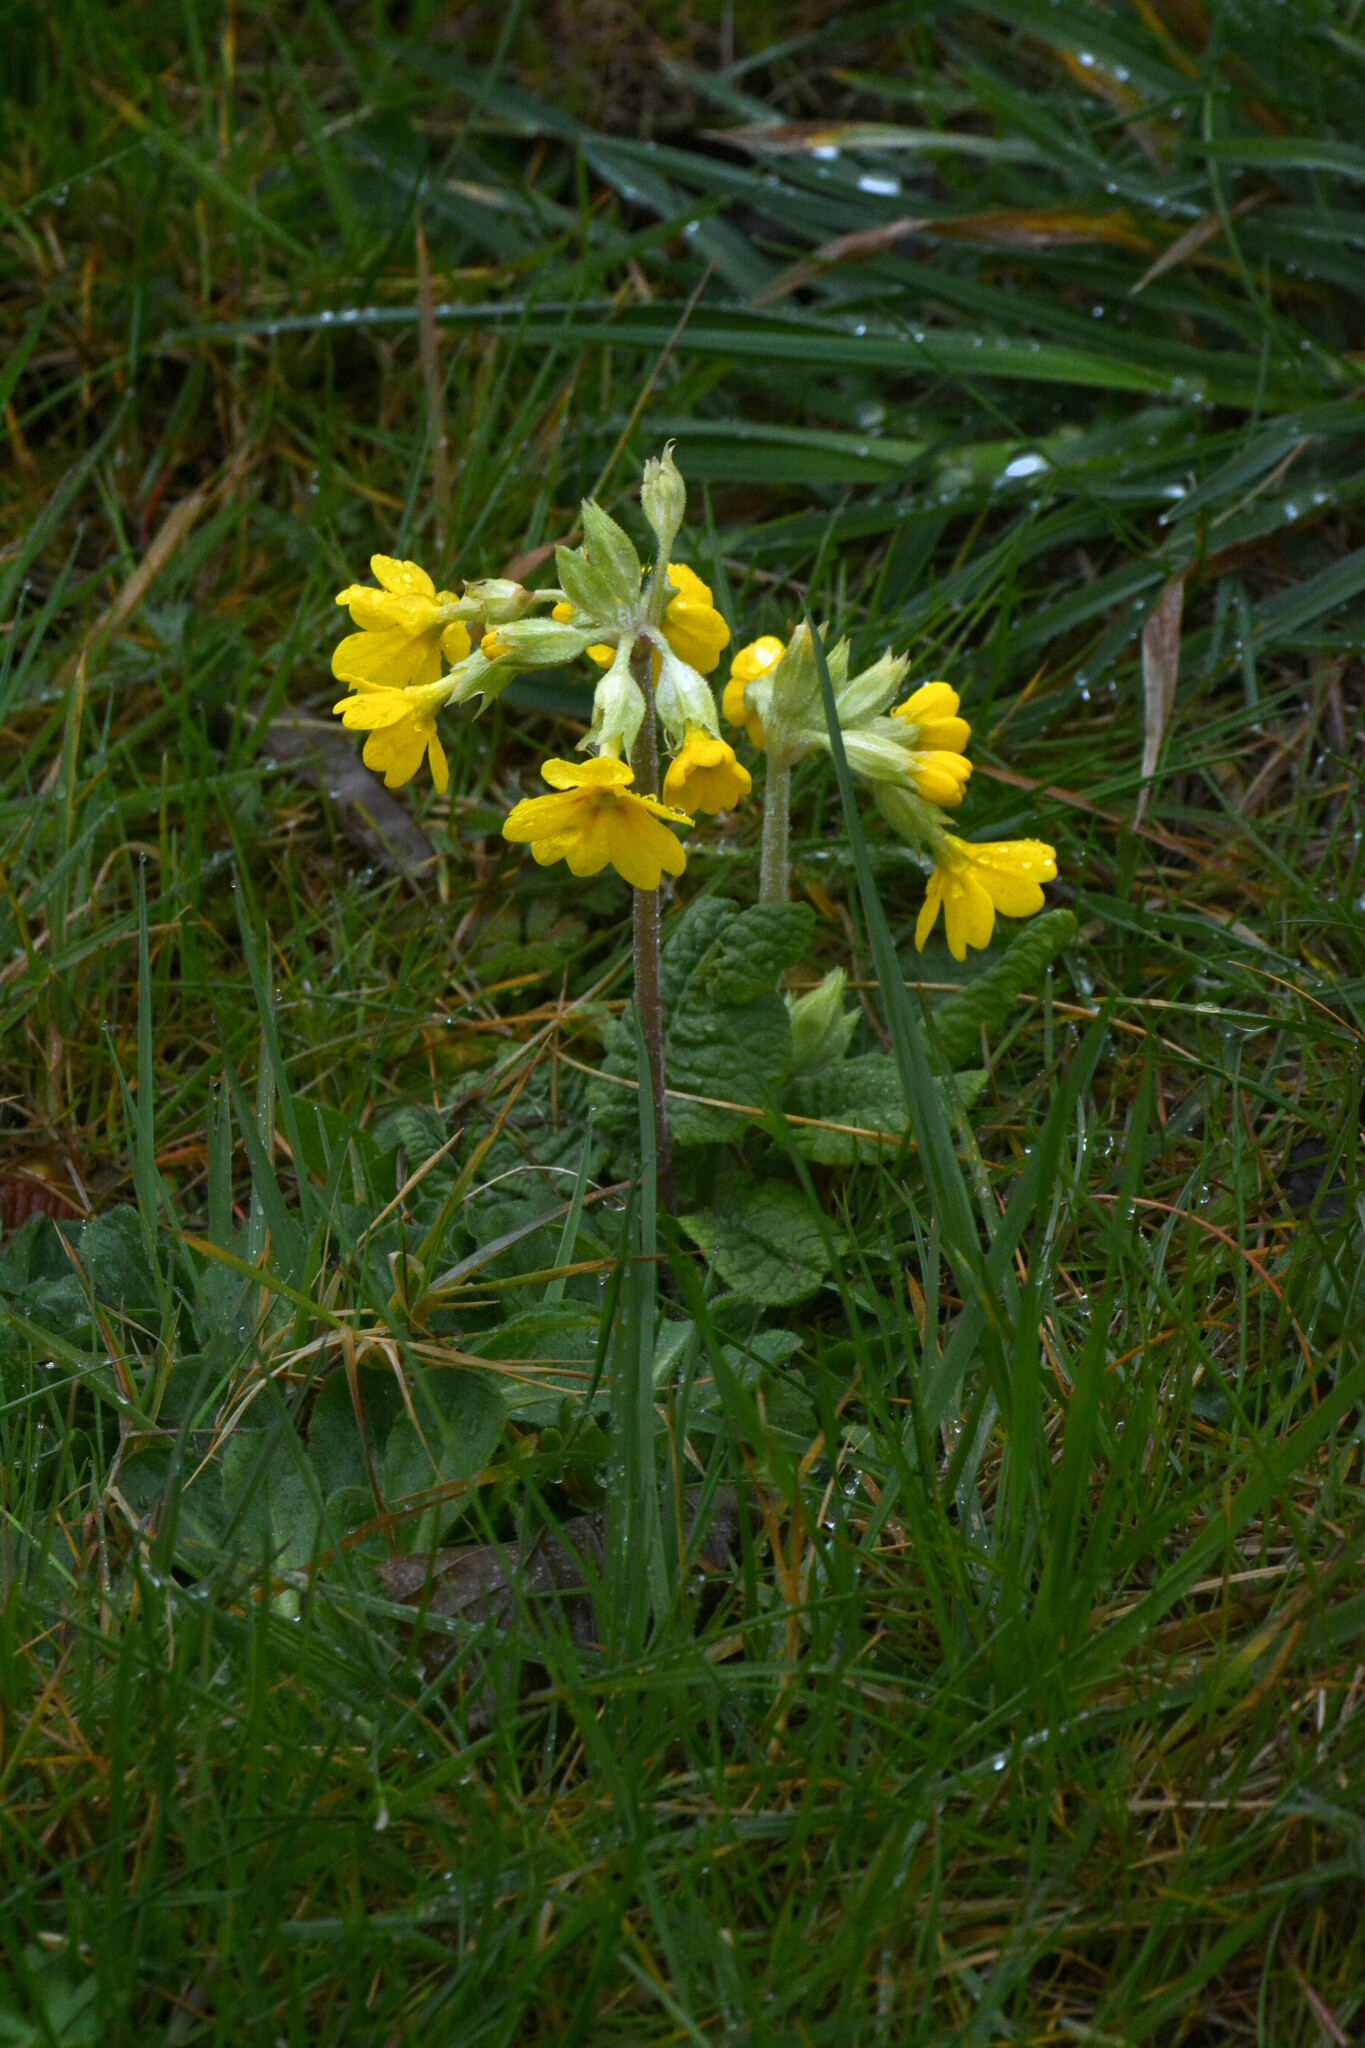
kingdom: Plantae
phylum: Tracheophyta
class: Magnoliopsida
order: Ericales
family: Primulaceae
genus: Primula
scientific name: Primula veris
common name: Cowslip
